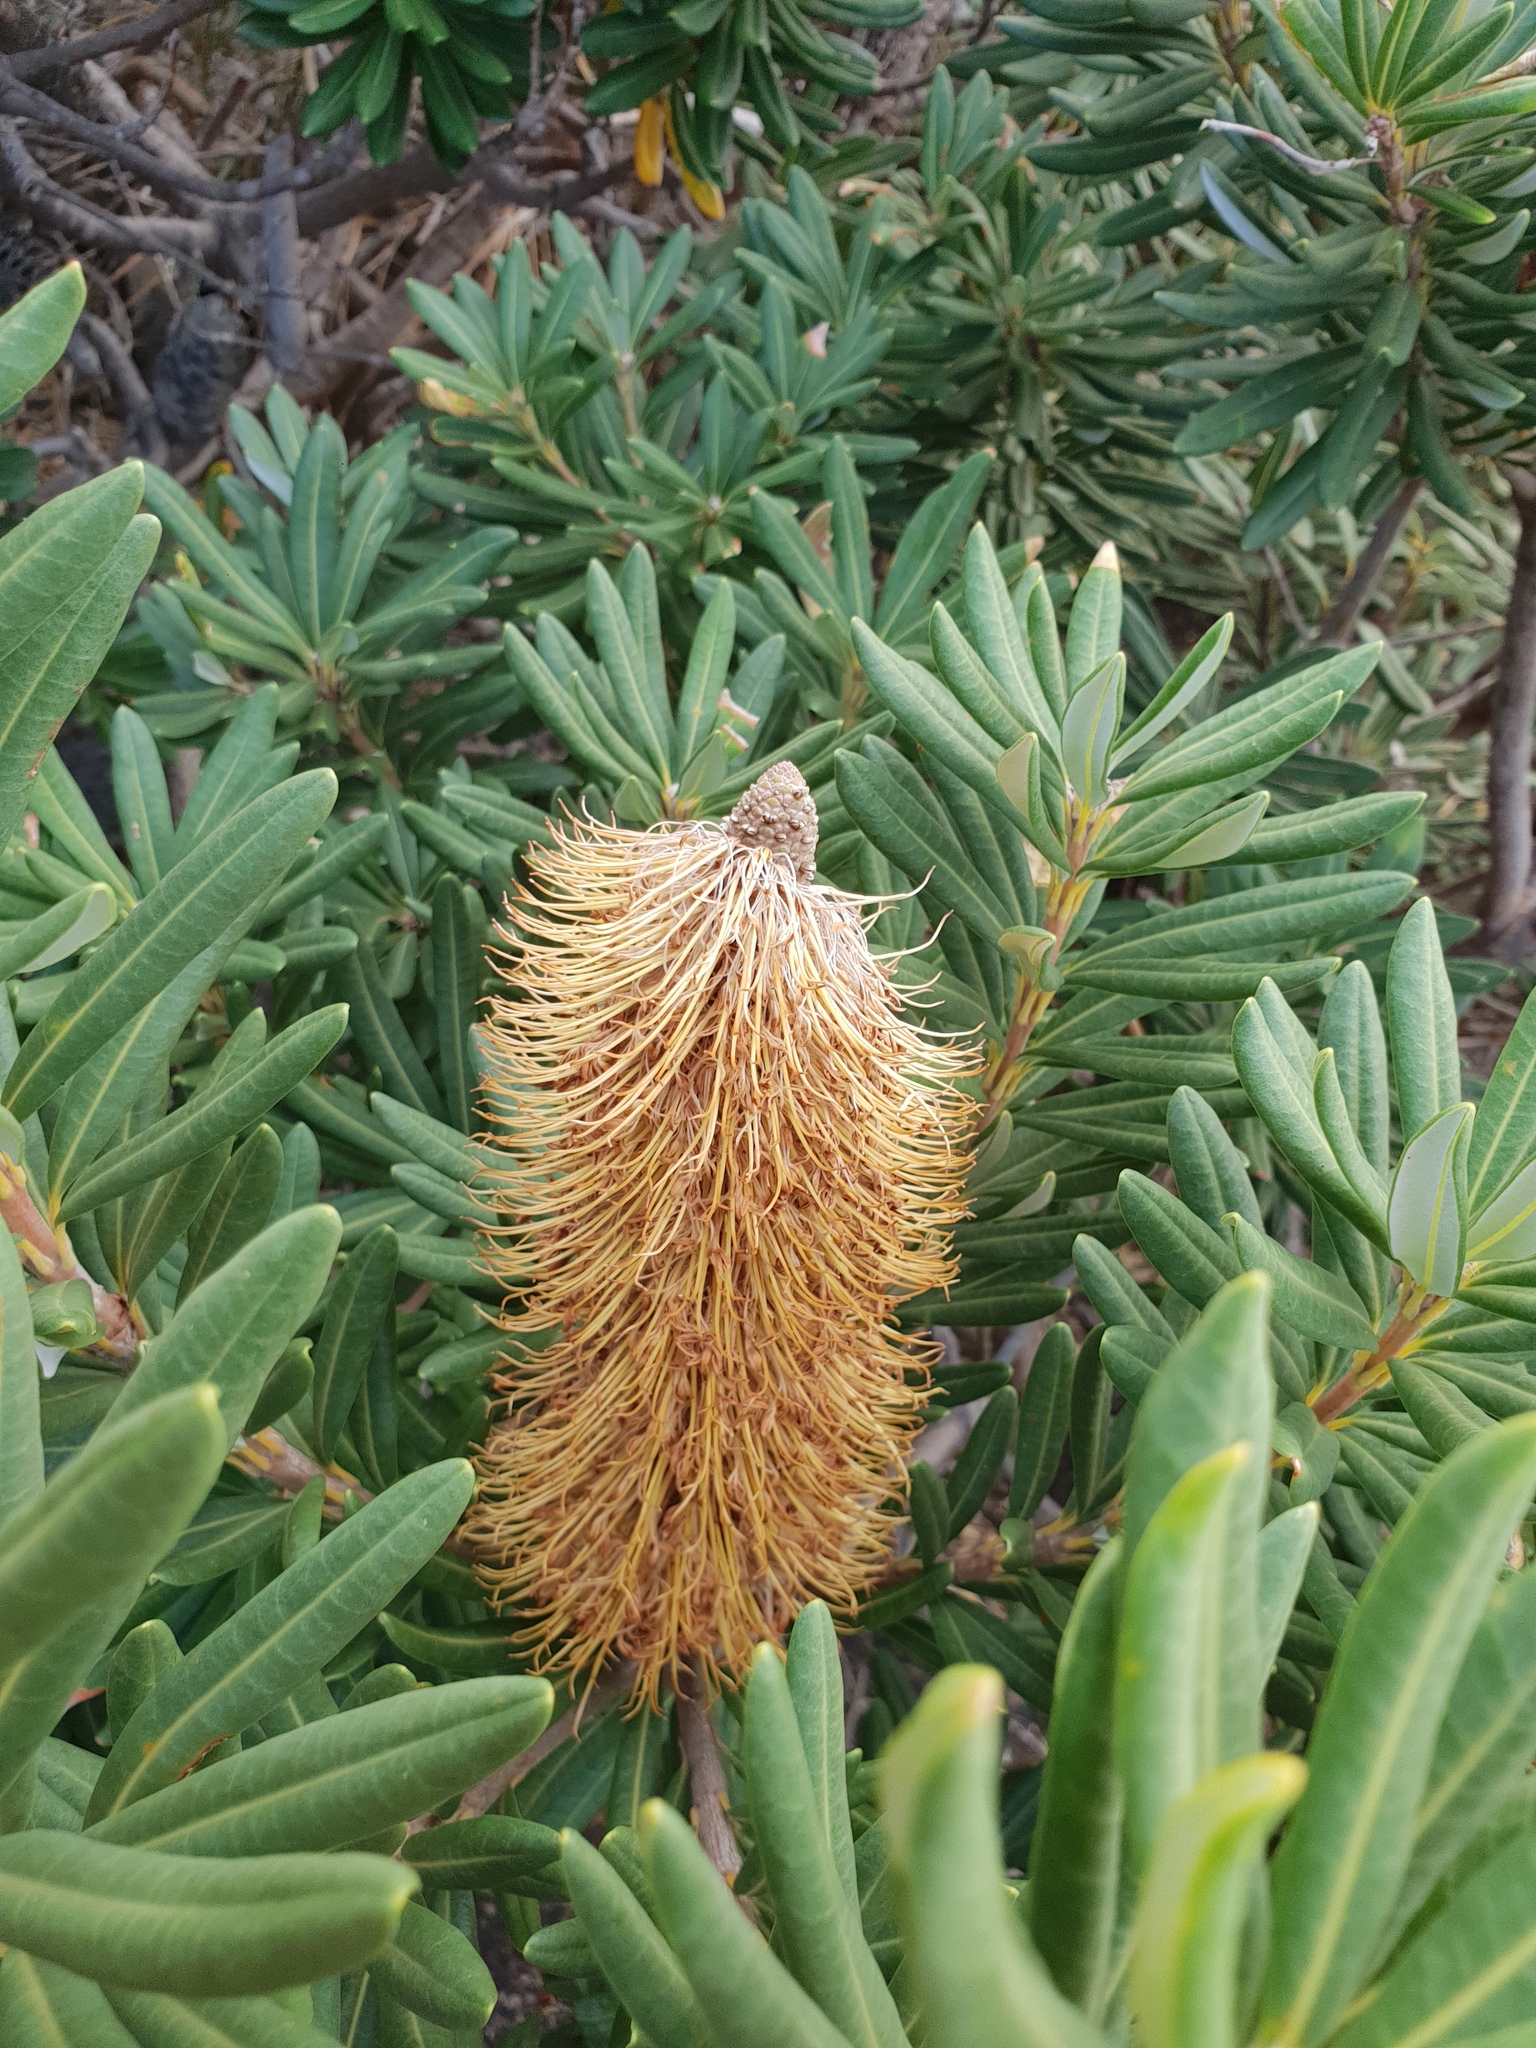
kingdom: Plantae
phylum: Tracheophyta
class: Magnoliopsida
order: Proteales
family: Proteaceae
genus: Banksia
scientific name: Banksia verticiliata
